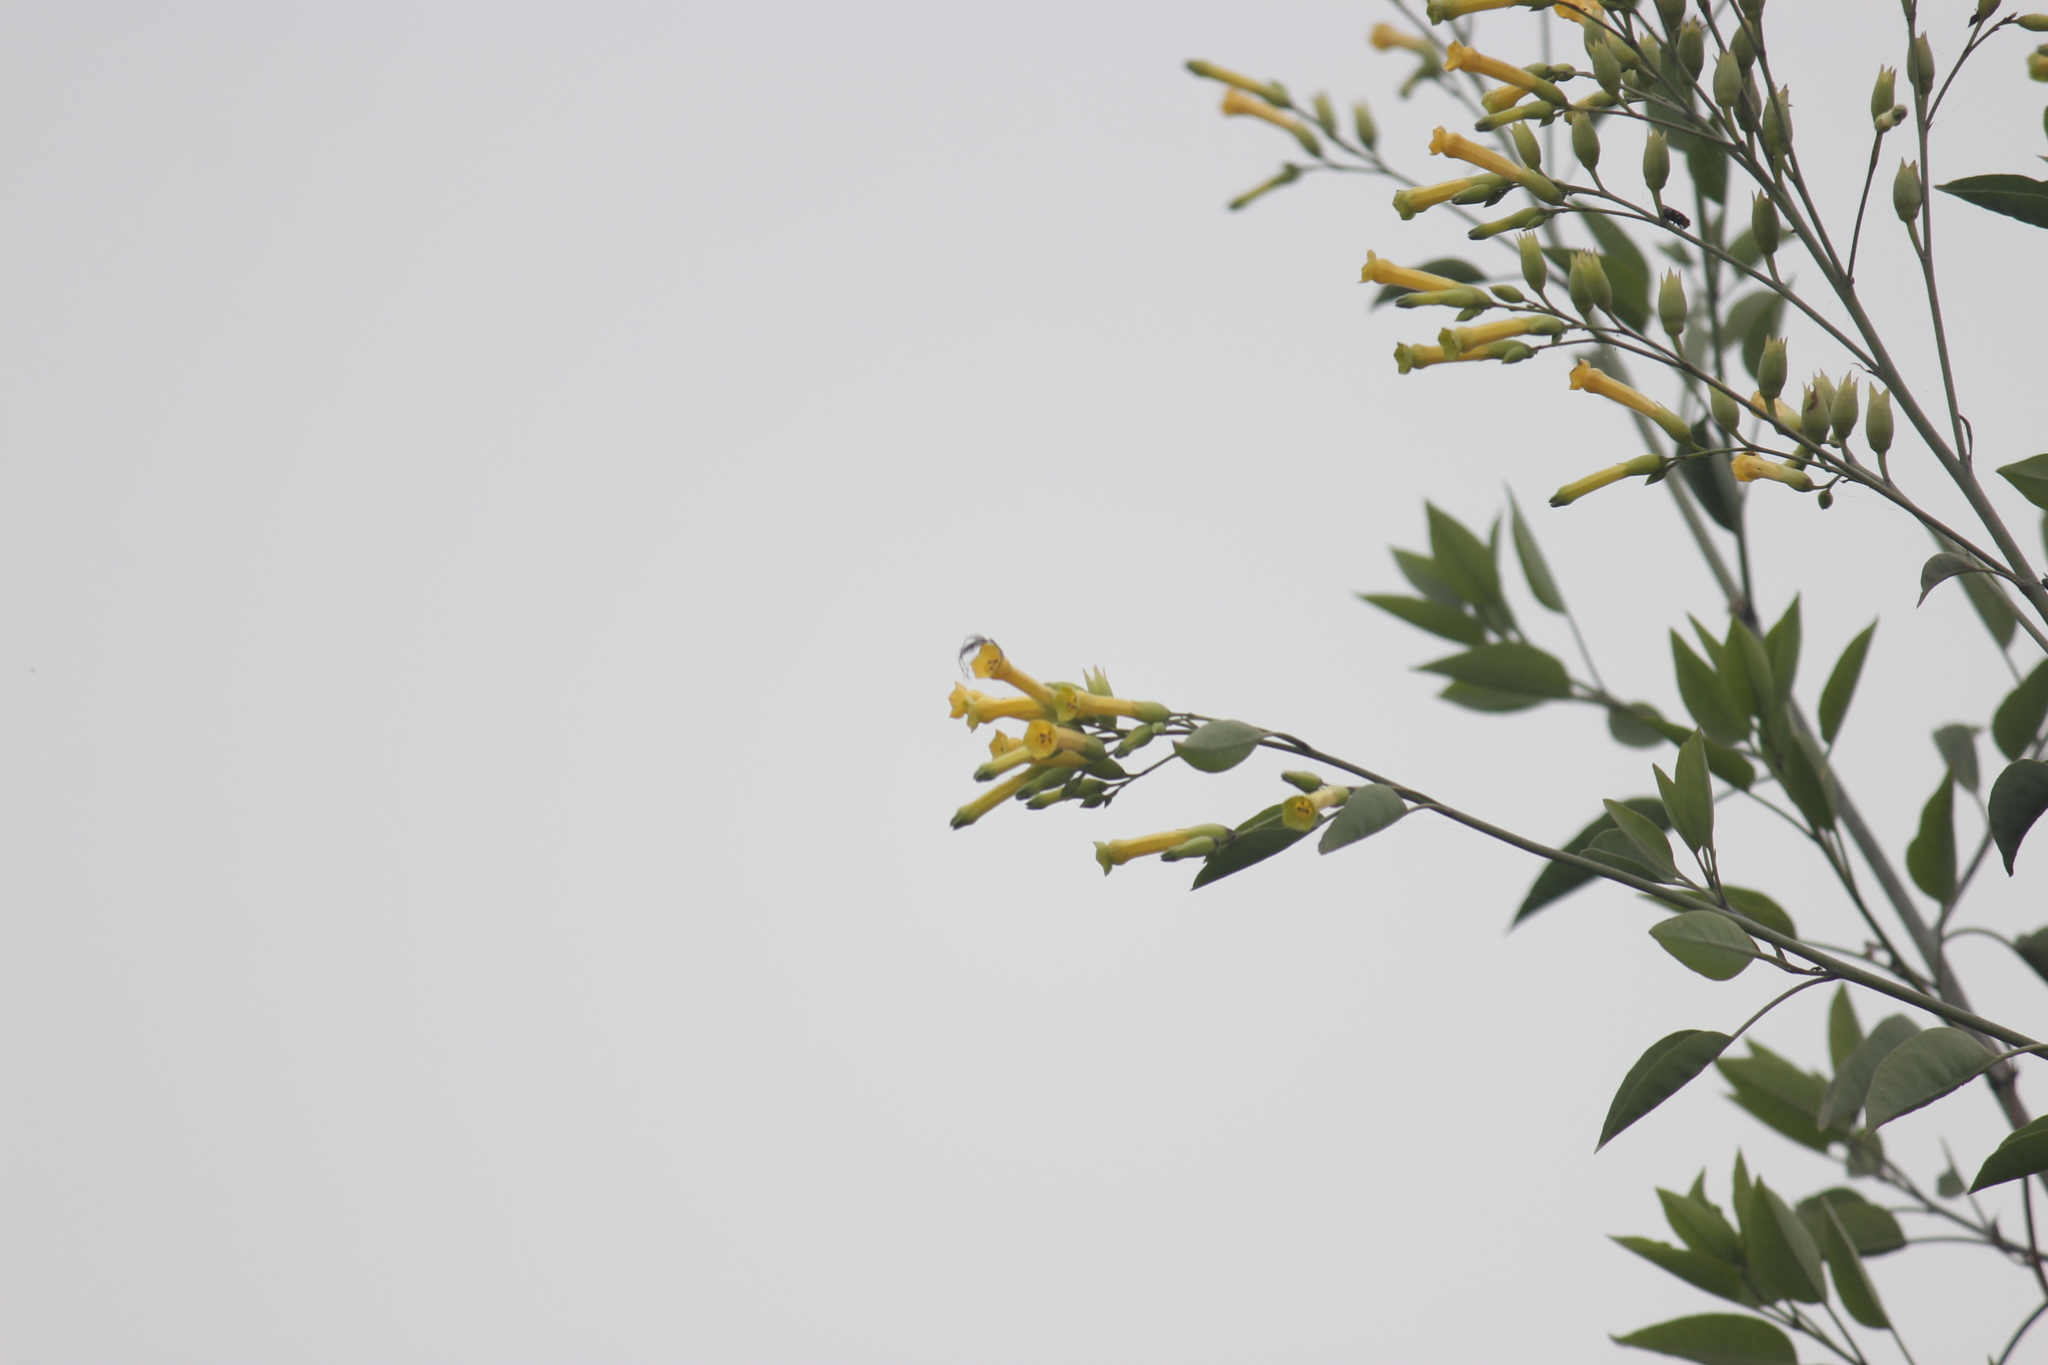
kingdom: Plantae
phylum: Tracheophyta
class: Magnoliopsida
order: Solanales
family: Solanaceae
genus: Nicotiana
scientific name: Nicotiana glauca
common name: Tree tobacco
